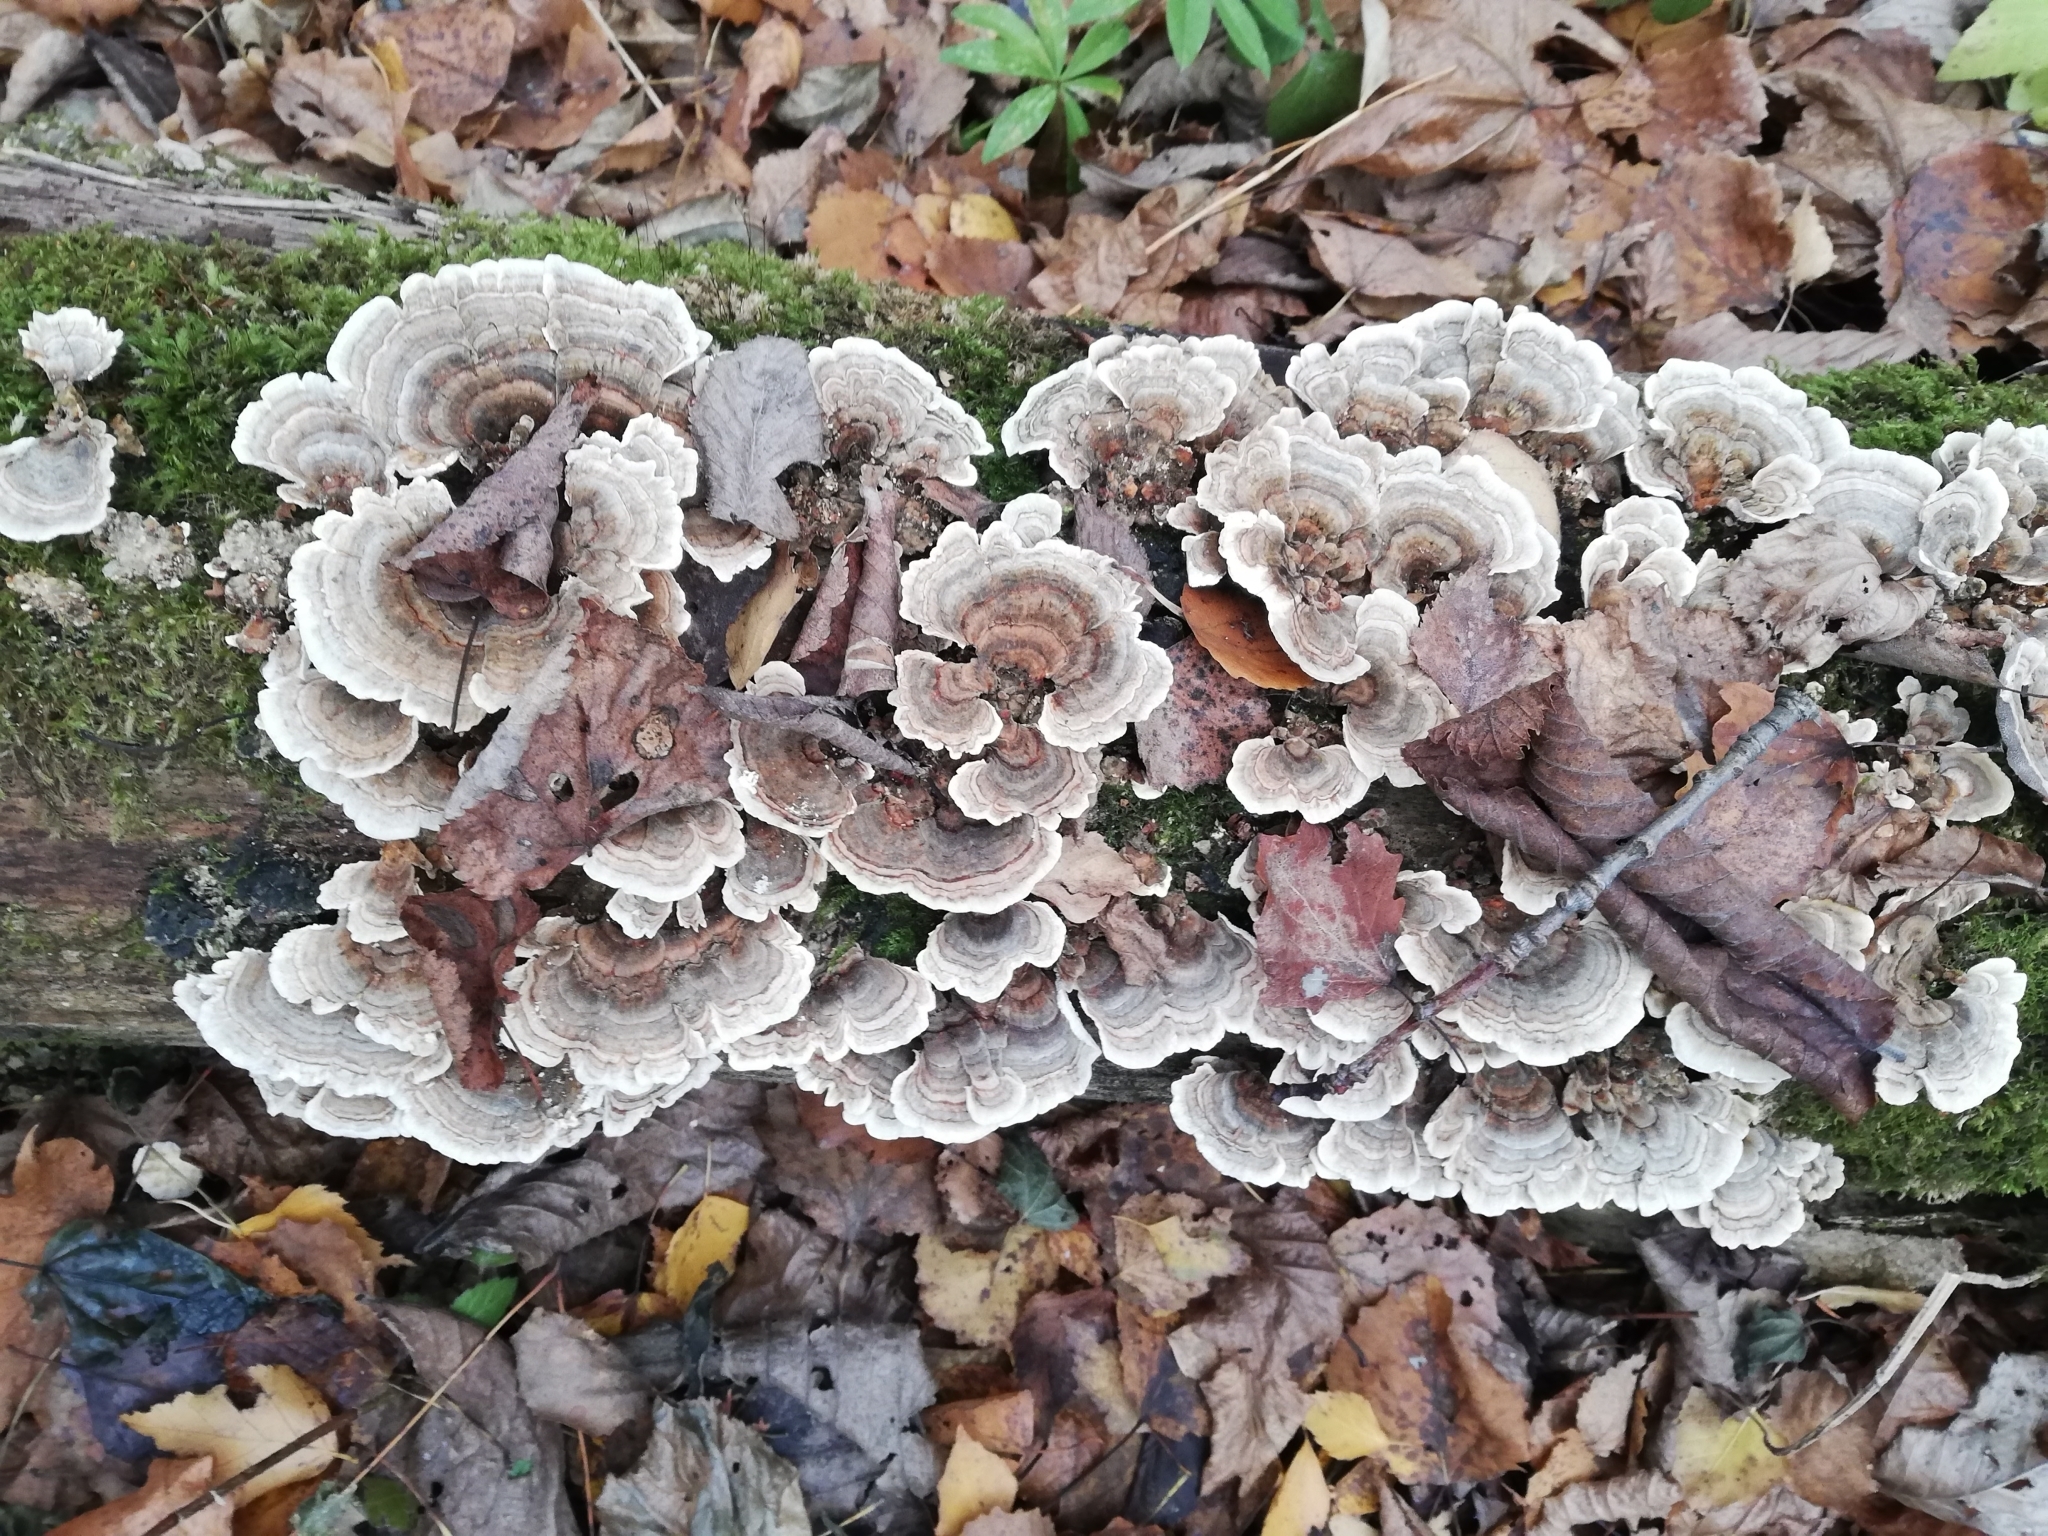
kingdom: Fungi
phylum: Basidiomycota
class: Agaricomycetes
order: Polyporales
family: Polyporaceae
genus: Trametes
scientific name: Trametes versicolor
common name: Turkeytail
